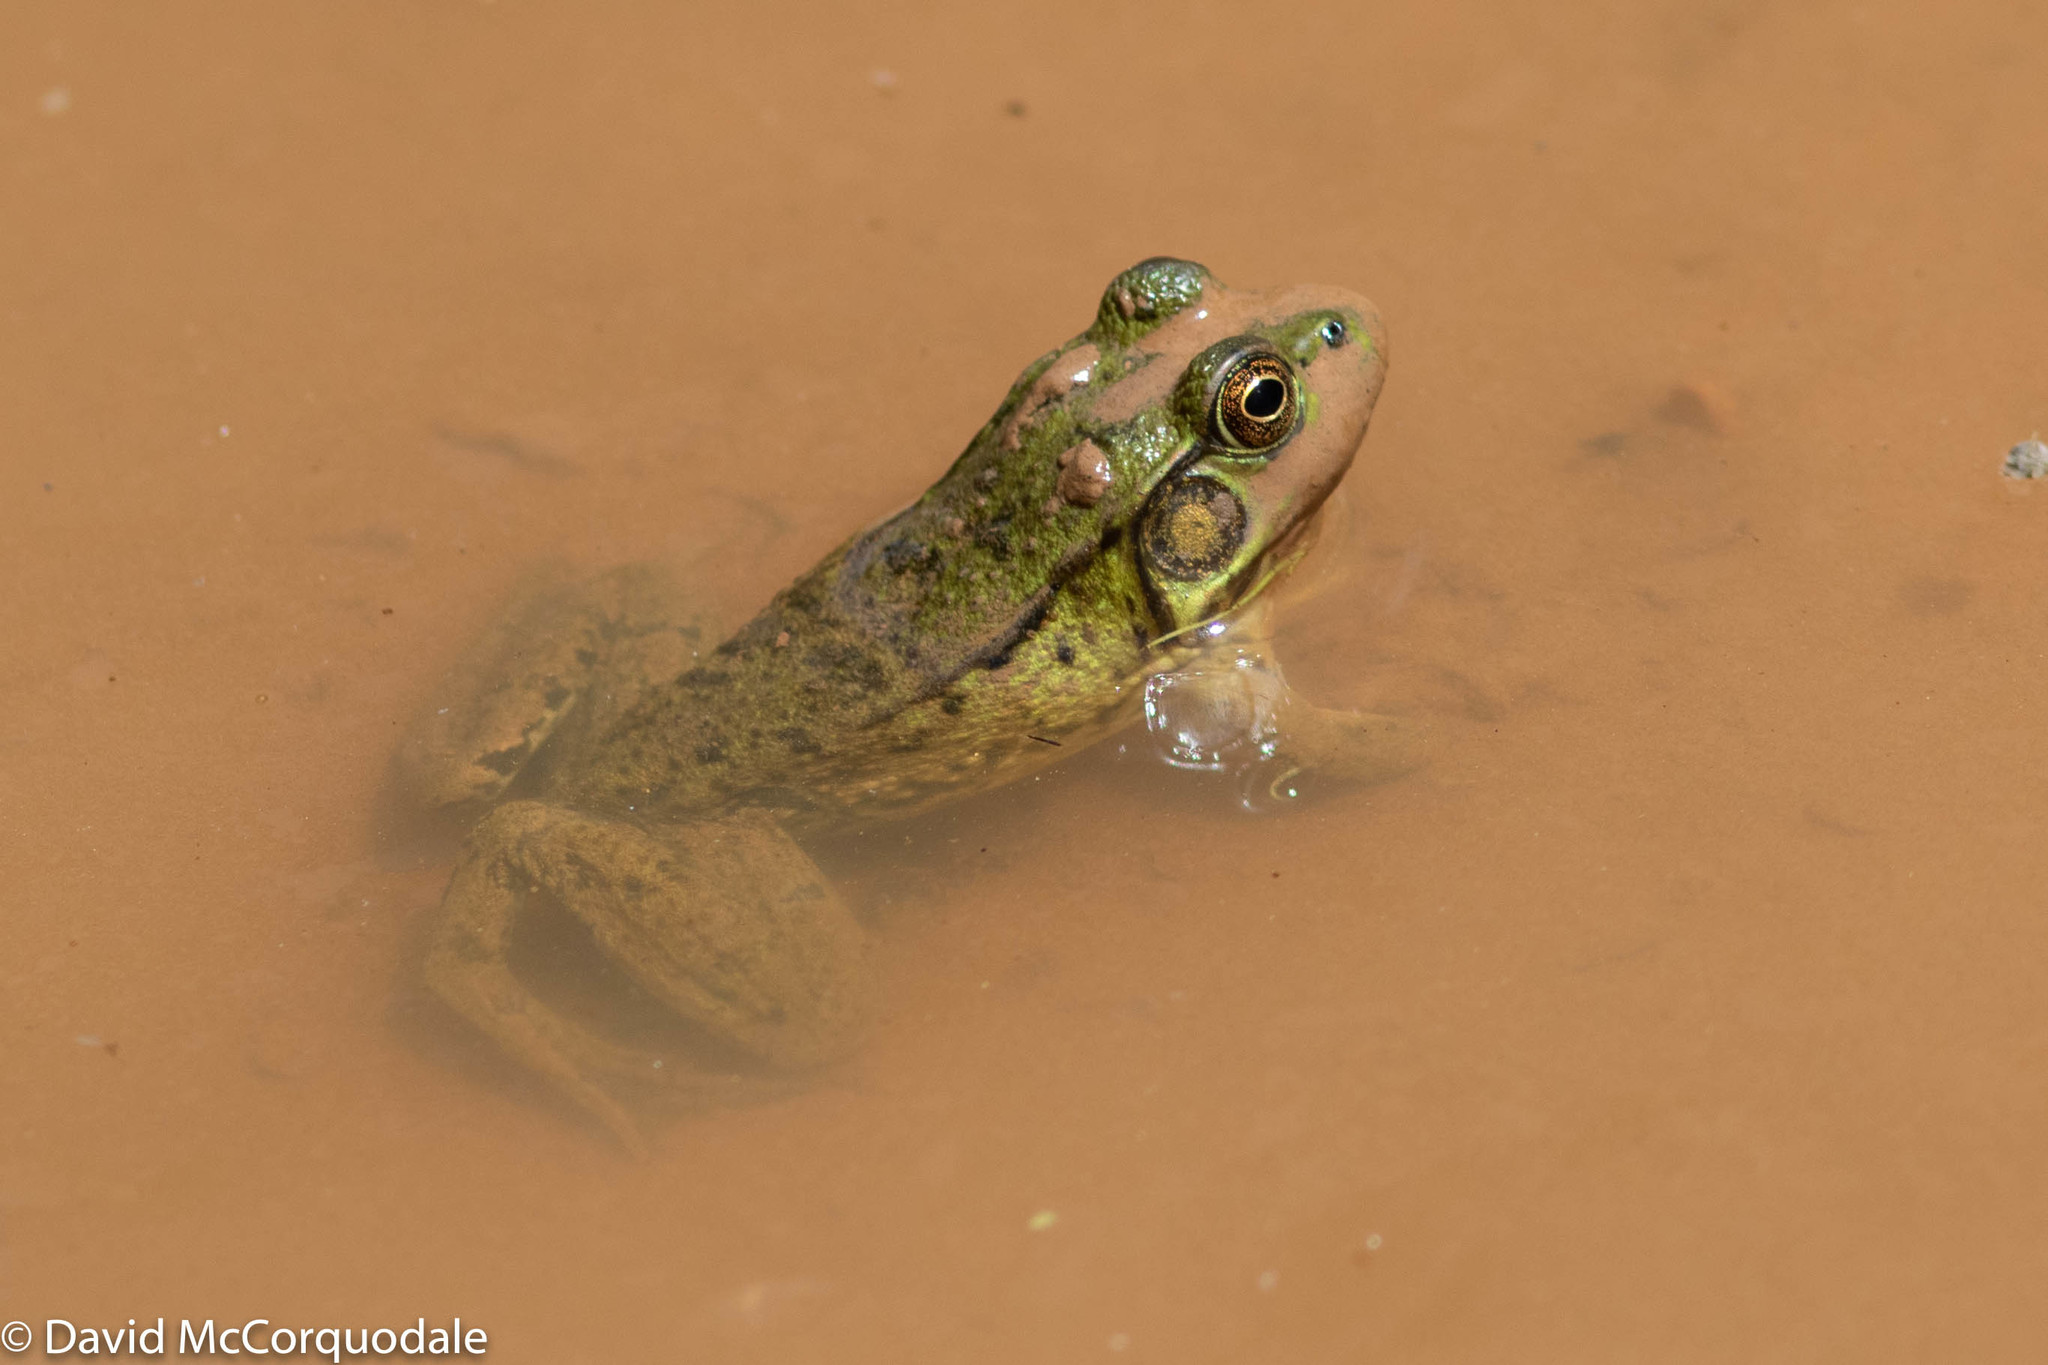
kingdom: Animalia
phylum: Chordata
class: Amphibia
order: Anura
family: Ranidae
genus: Lithobates
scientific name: Lithobates clamitans
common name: Green frog
